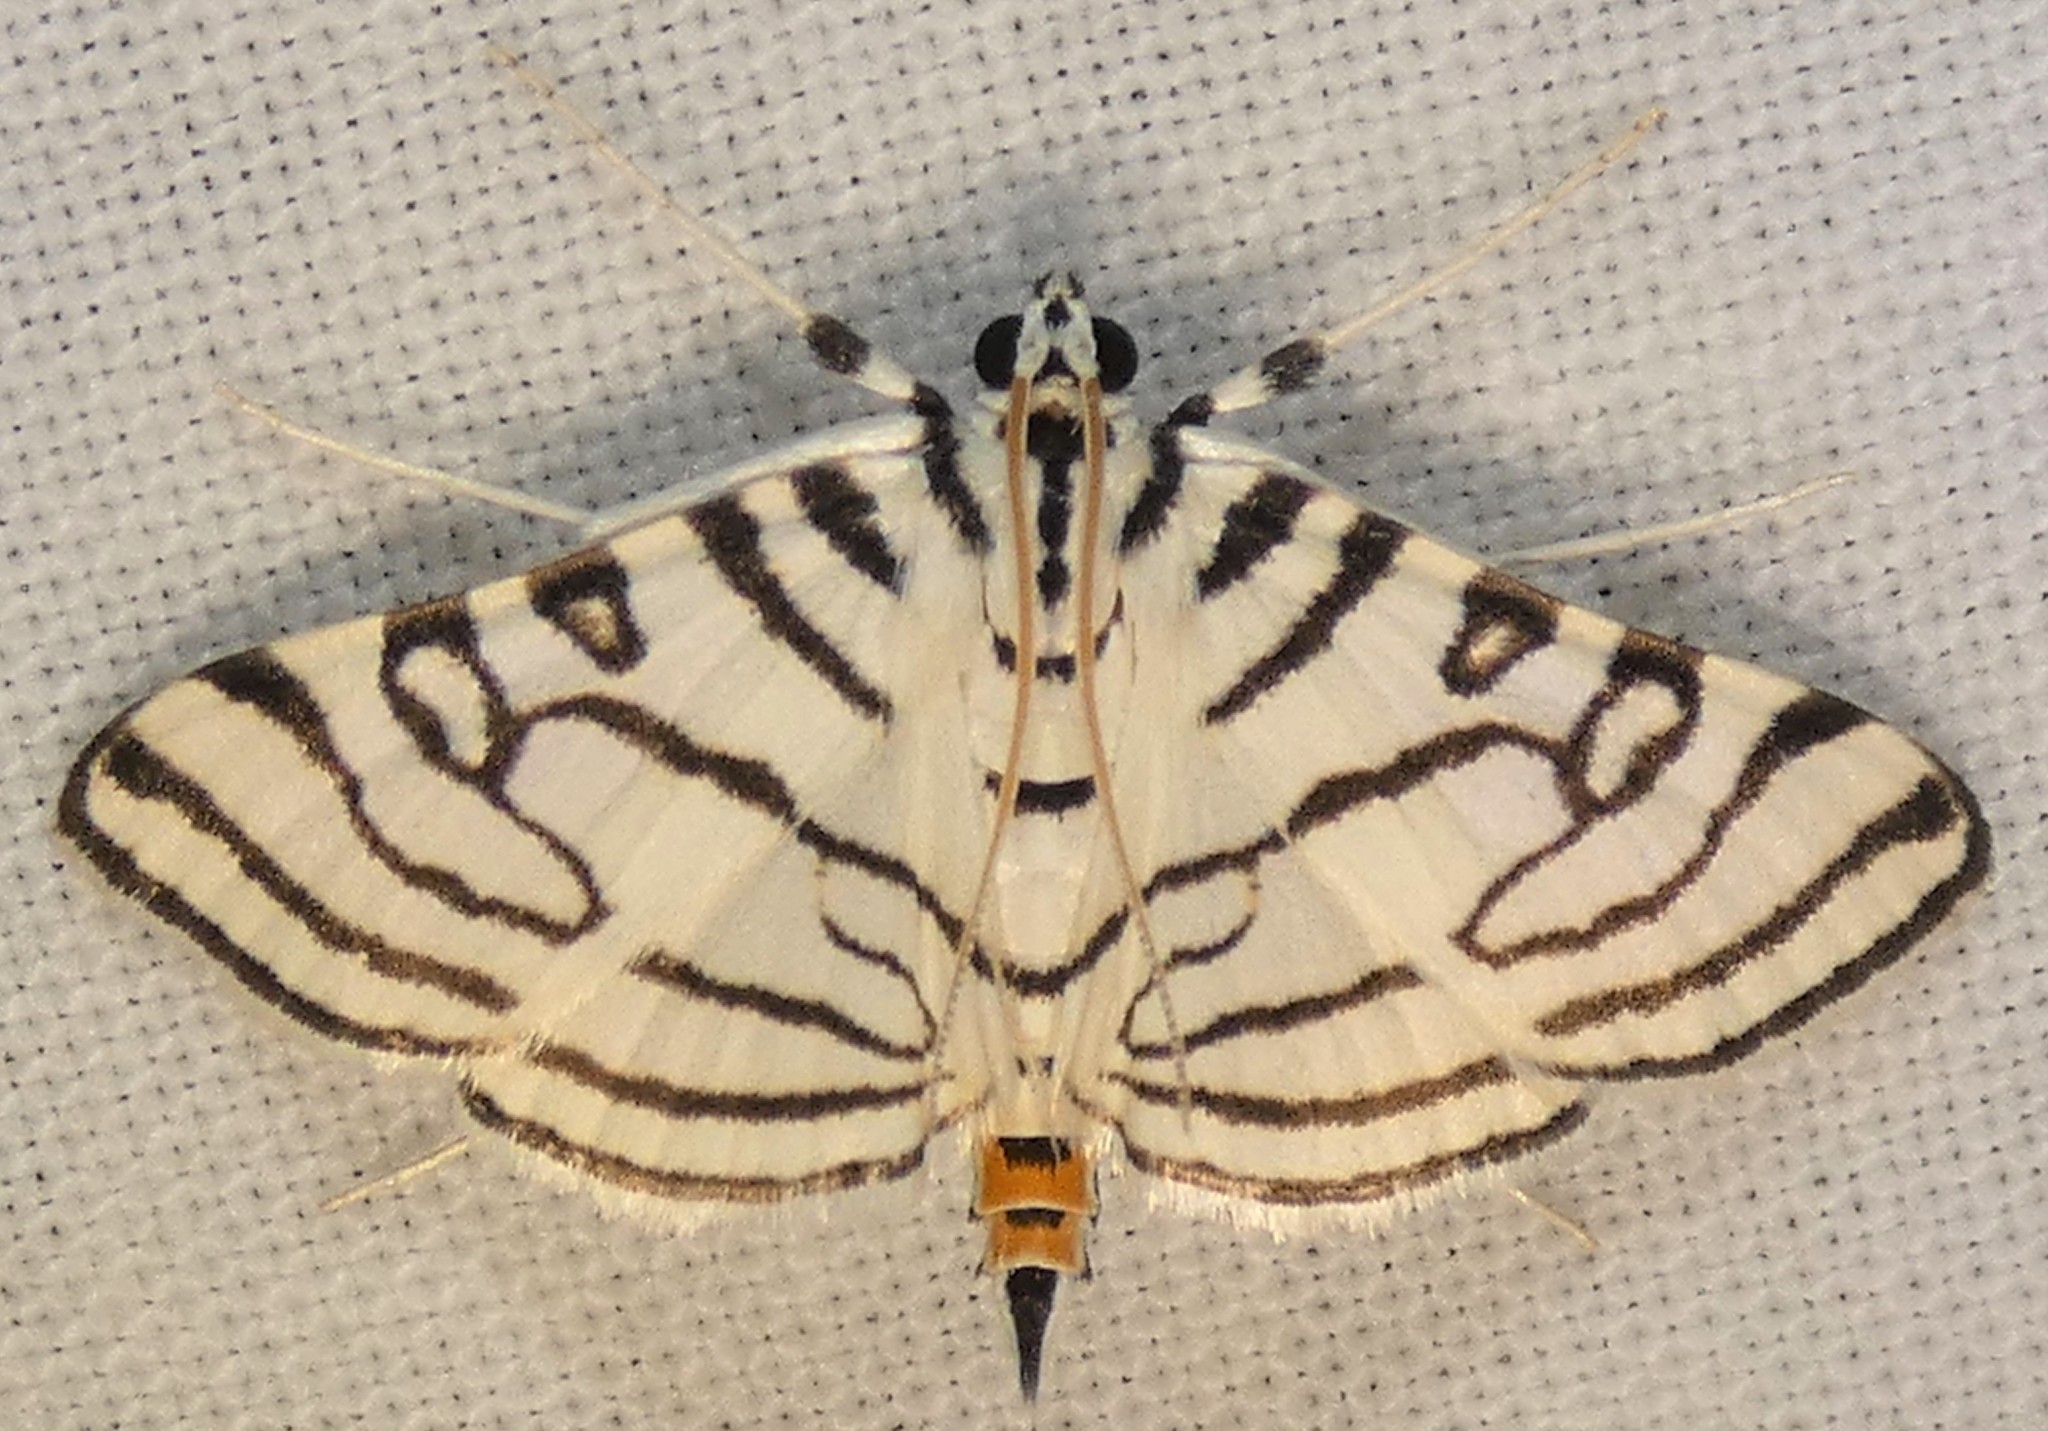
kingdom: Animalia
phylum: Arthropoda
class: Insecta
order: Lepidoptera
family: Crambidae
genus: Conchylodes
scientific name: Conchylodes concinnalis
